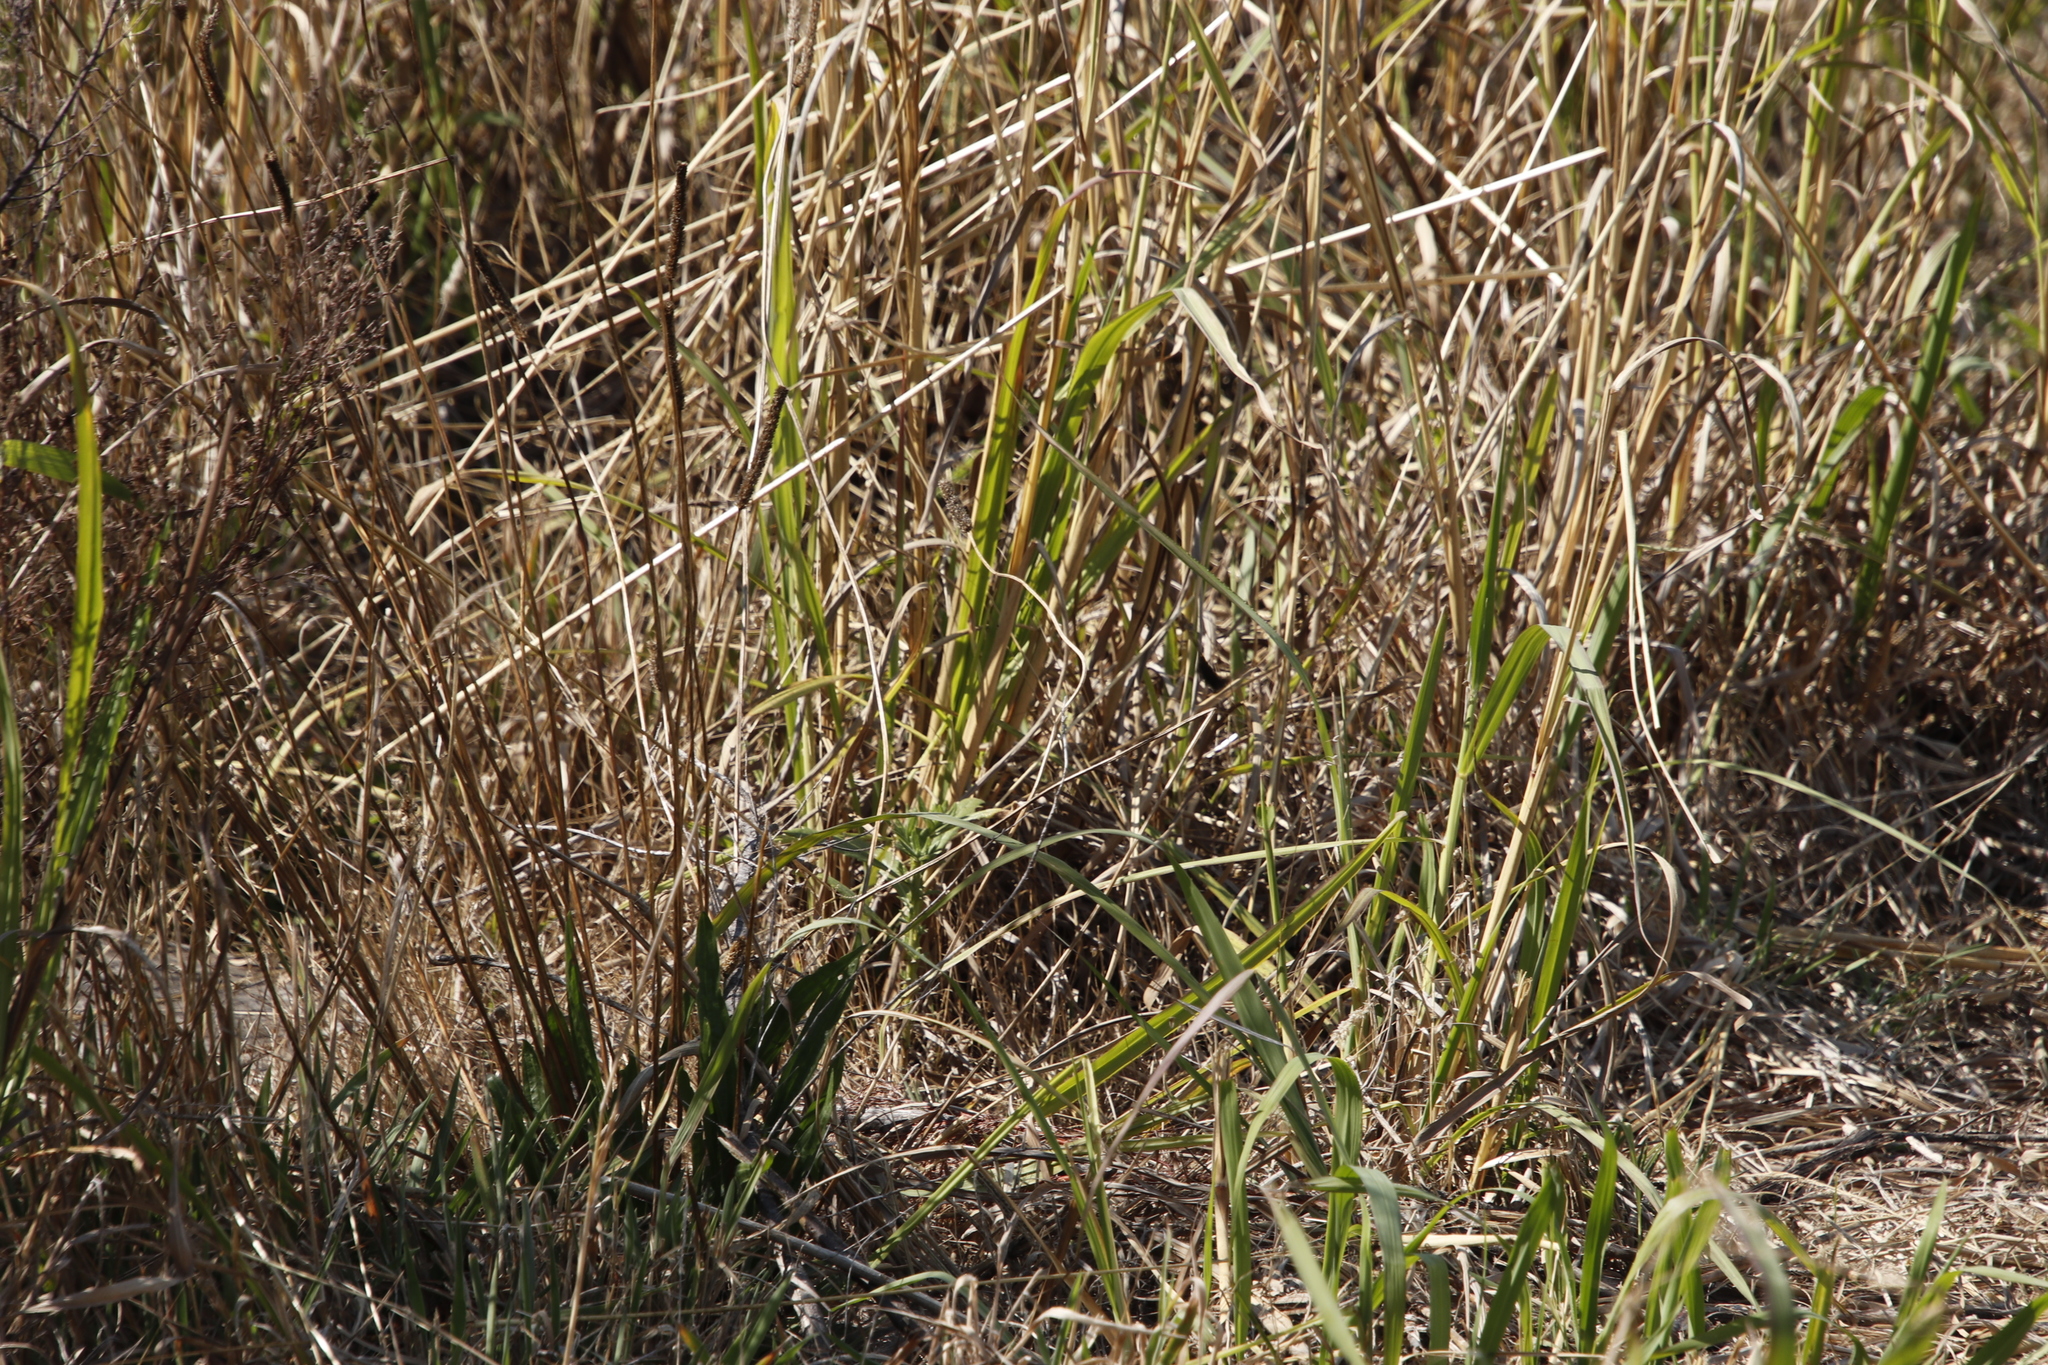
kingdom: Plantae
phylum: Tracheophyta
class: Liliopsida
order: Poales
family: Poaceae
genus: Paspalum
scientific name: Paspalum urvillei
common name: Vasey's grass
